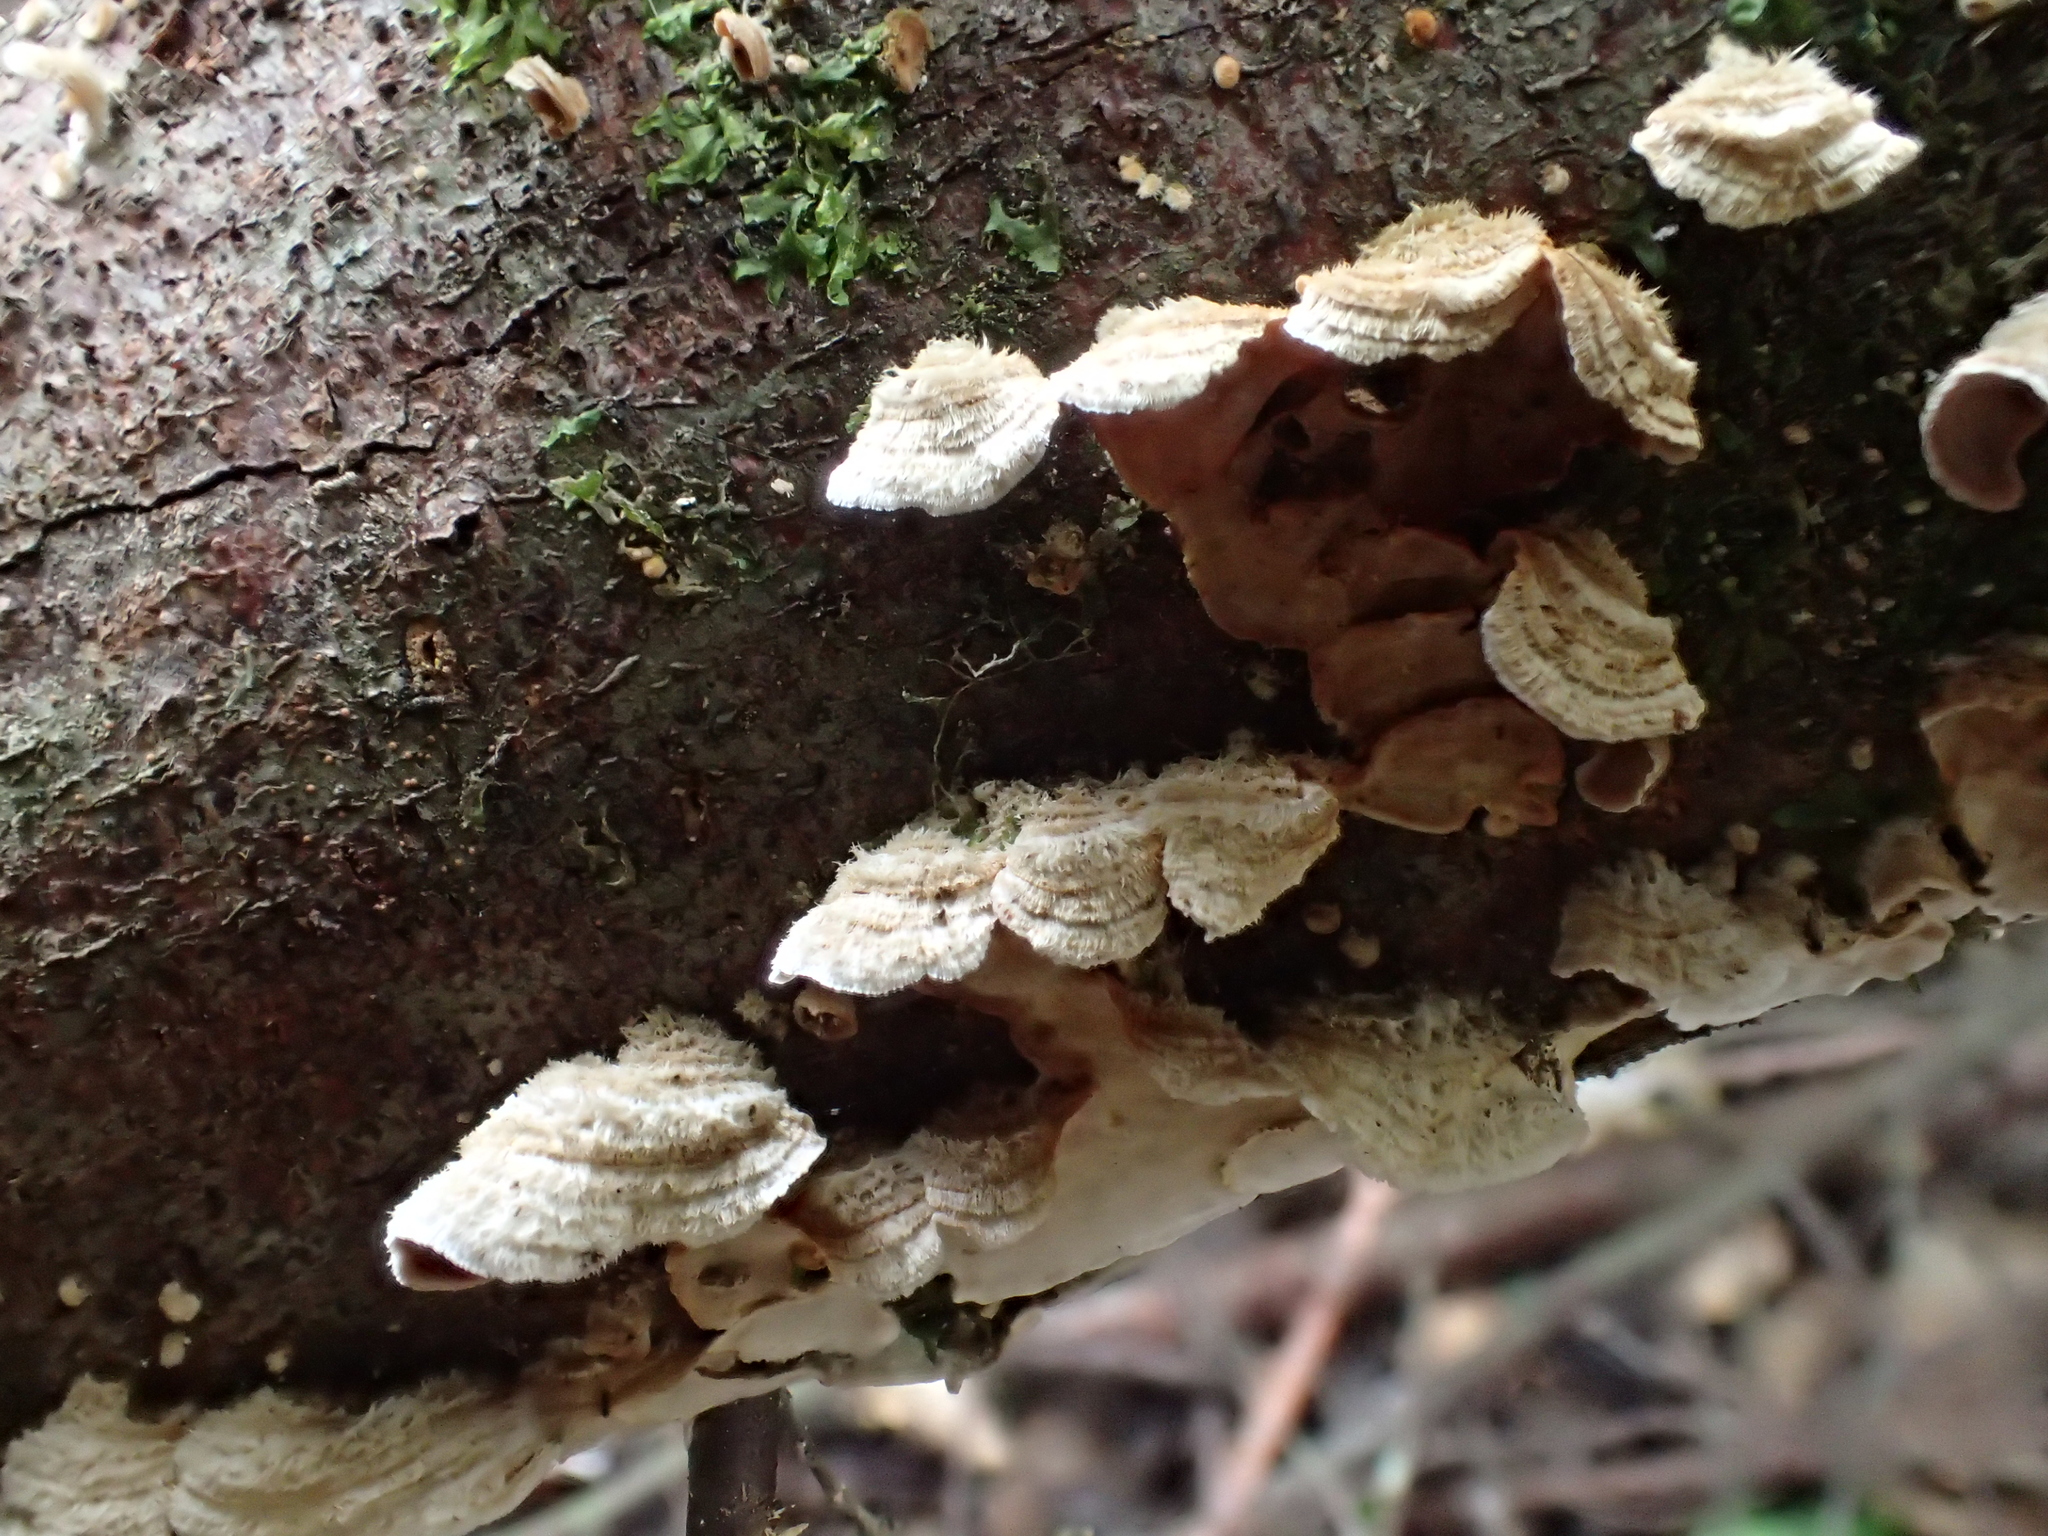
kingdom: Fungi
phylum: Basidiomycota
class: Agaricomycetes
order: Russulales
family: Stereaceae
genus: Stereum
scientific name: Stereum hirsutum
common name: Hairy curtain crust
